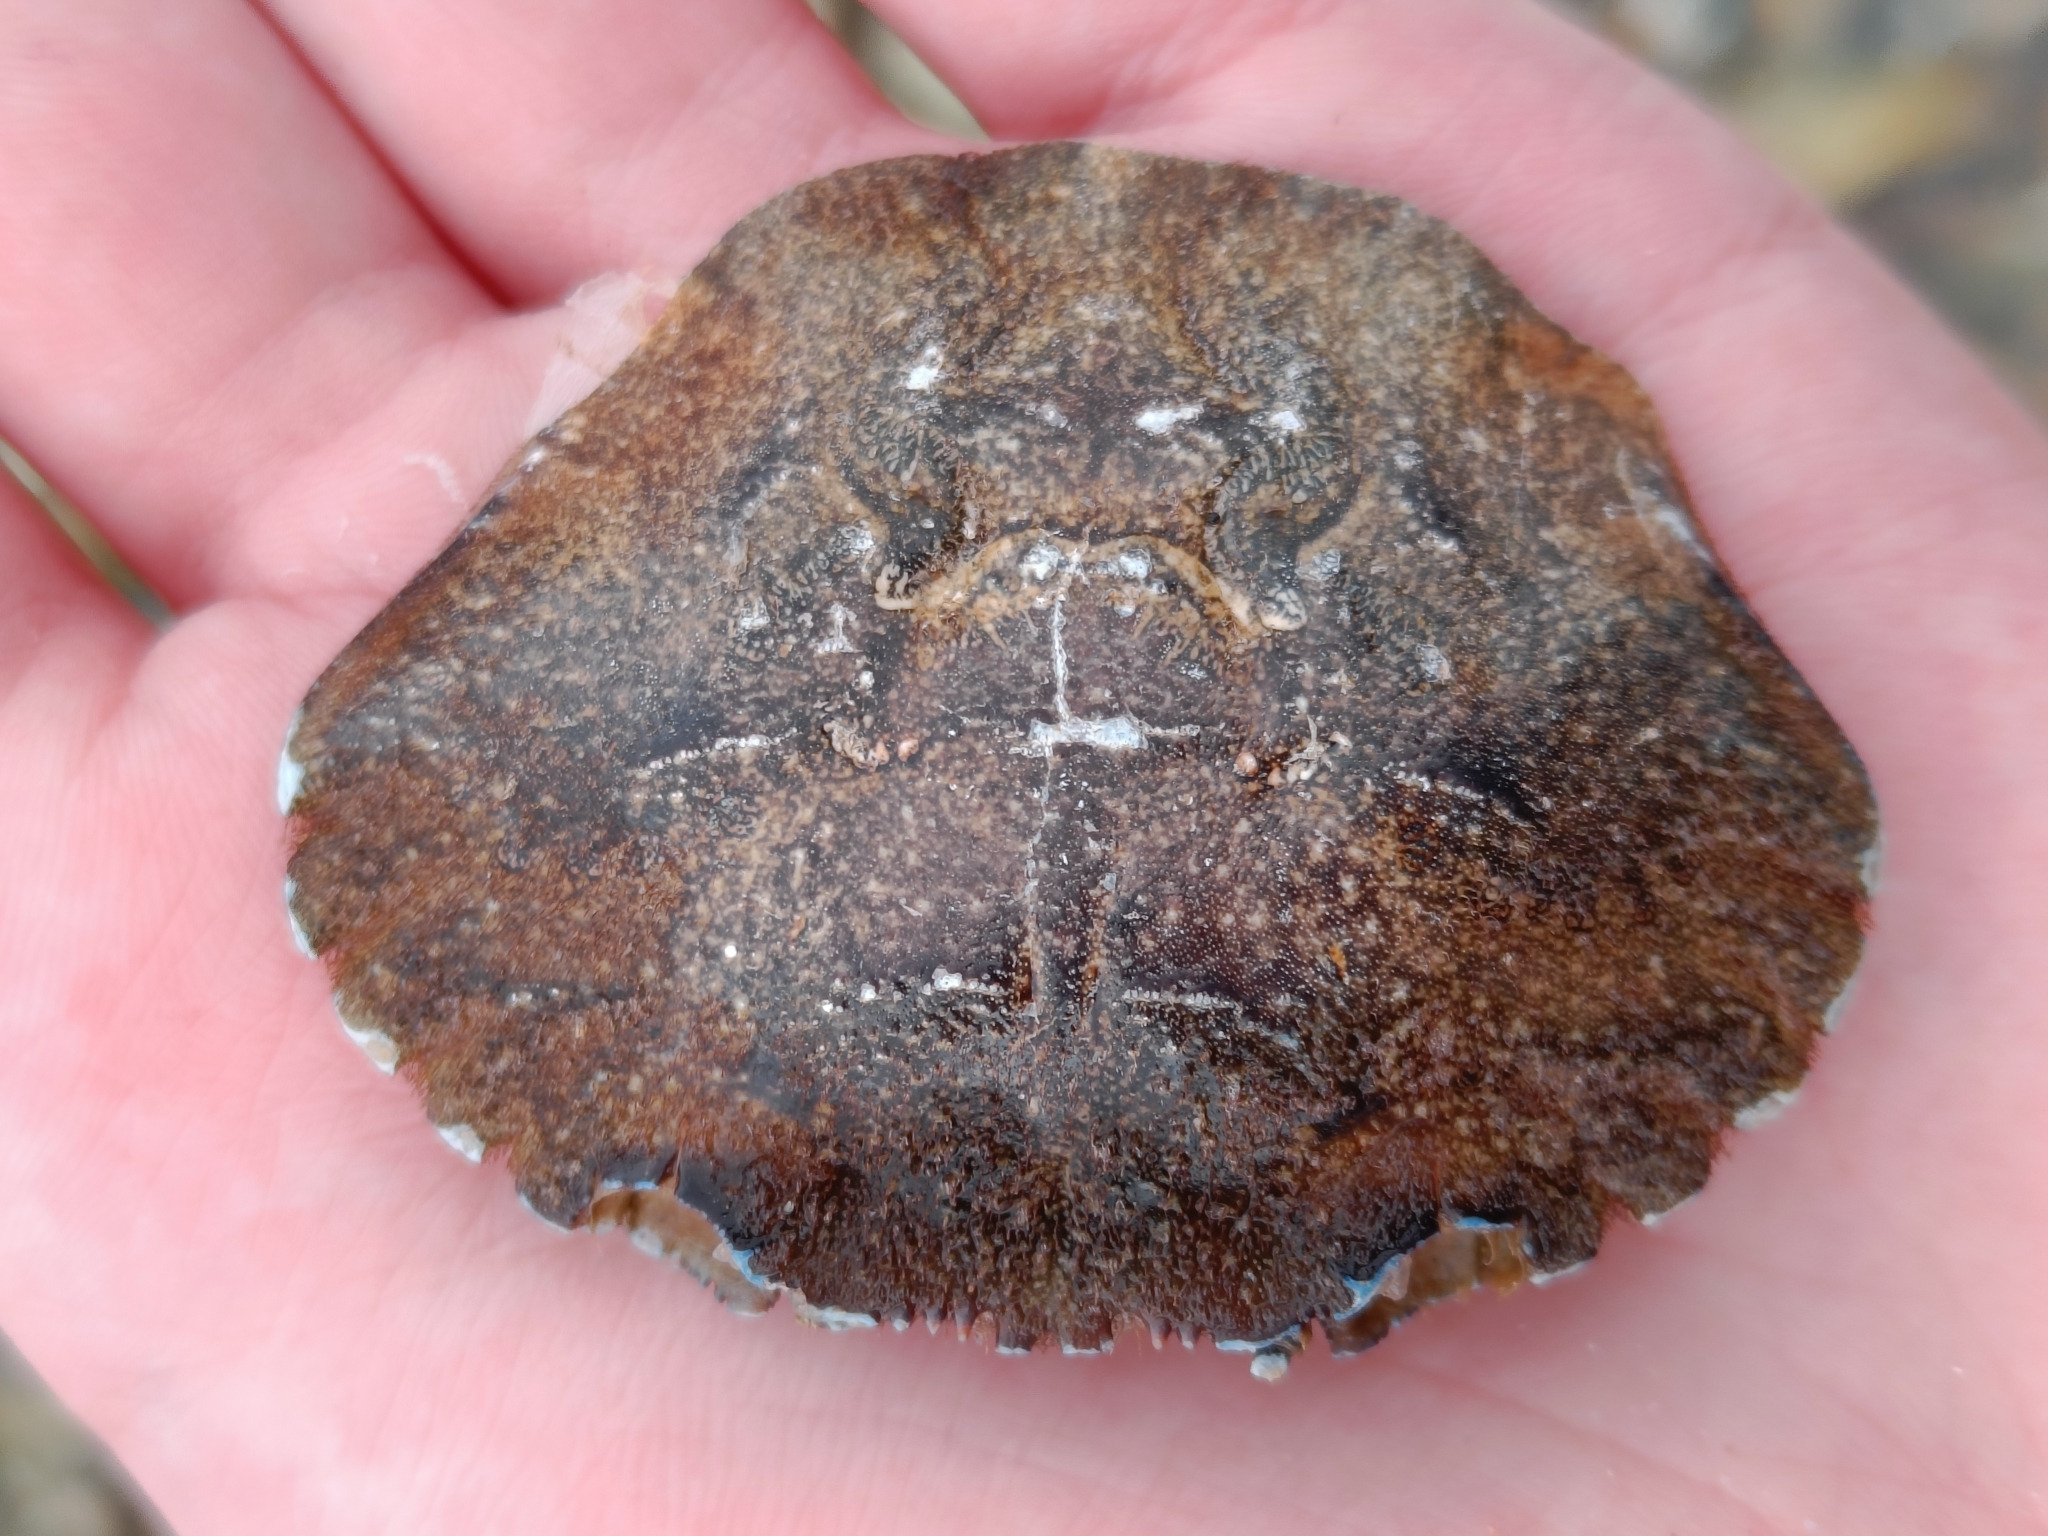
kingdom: Animalia
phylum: Arthropoda
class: Malacostraca
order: Decapoda
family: Polybiidae
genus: Necora
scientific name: Necora puber
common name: Velvet swimming crab
